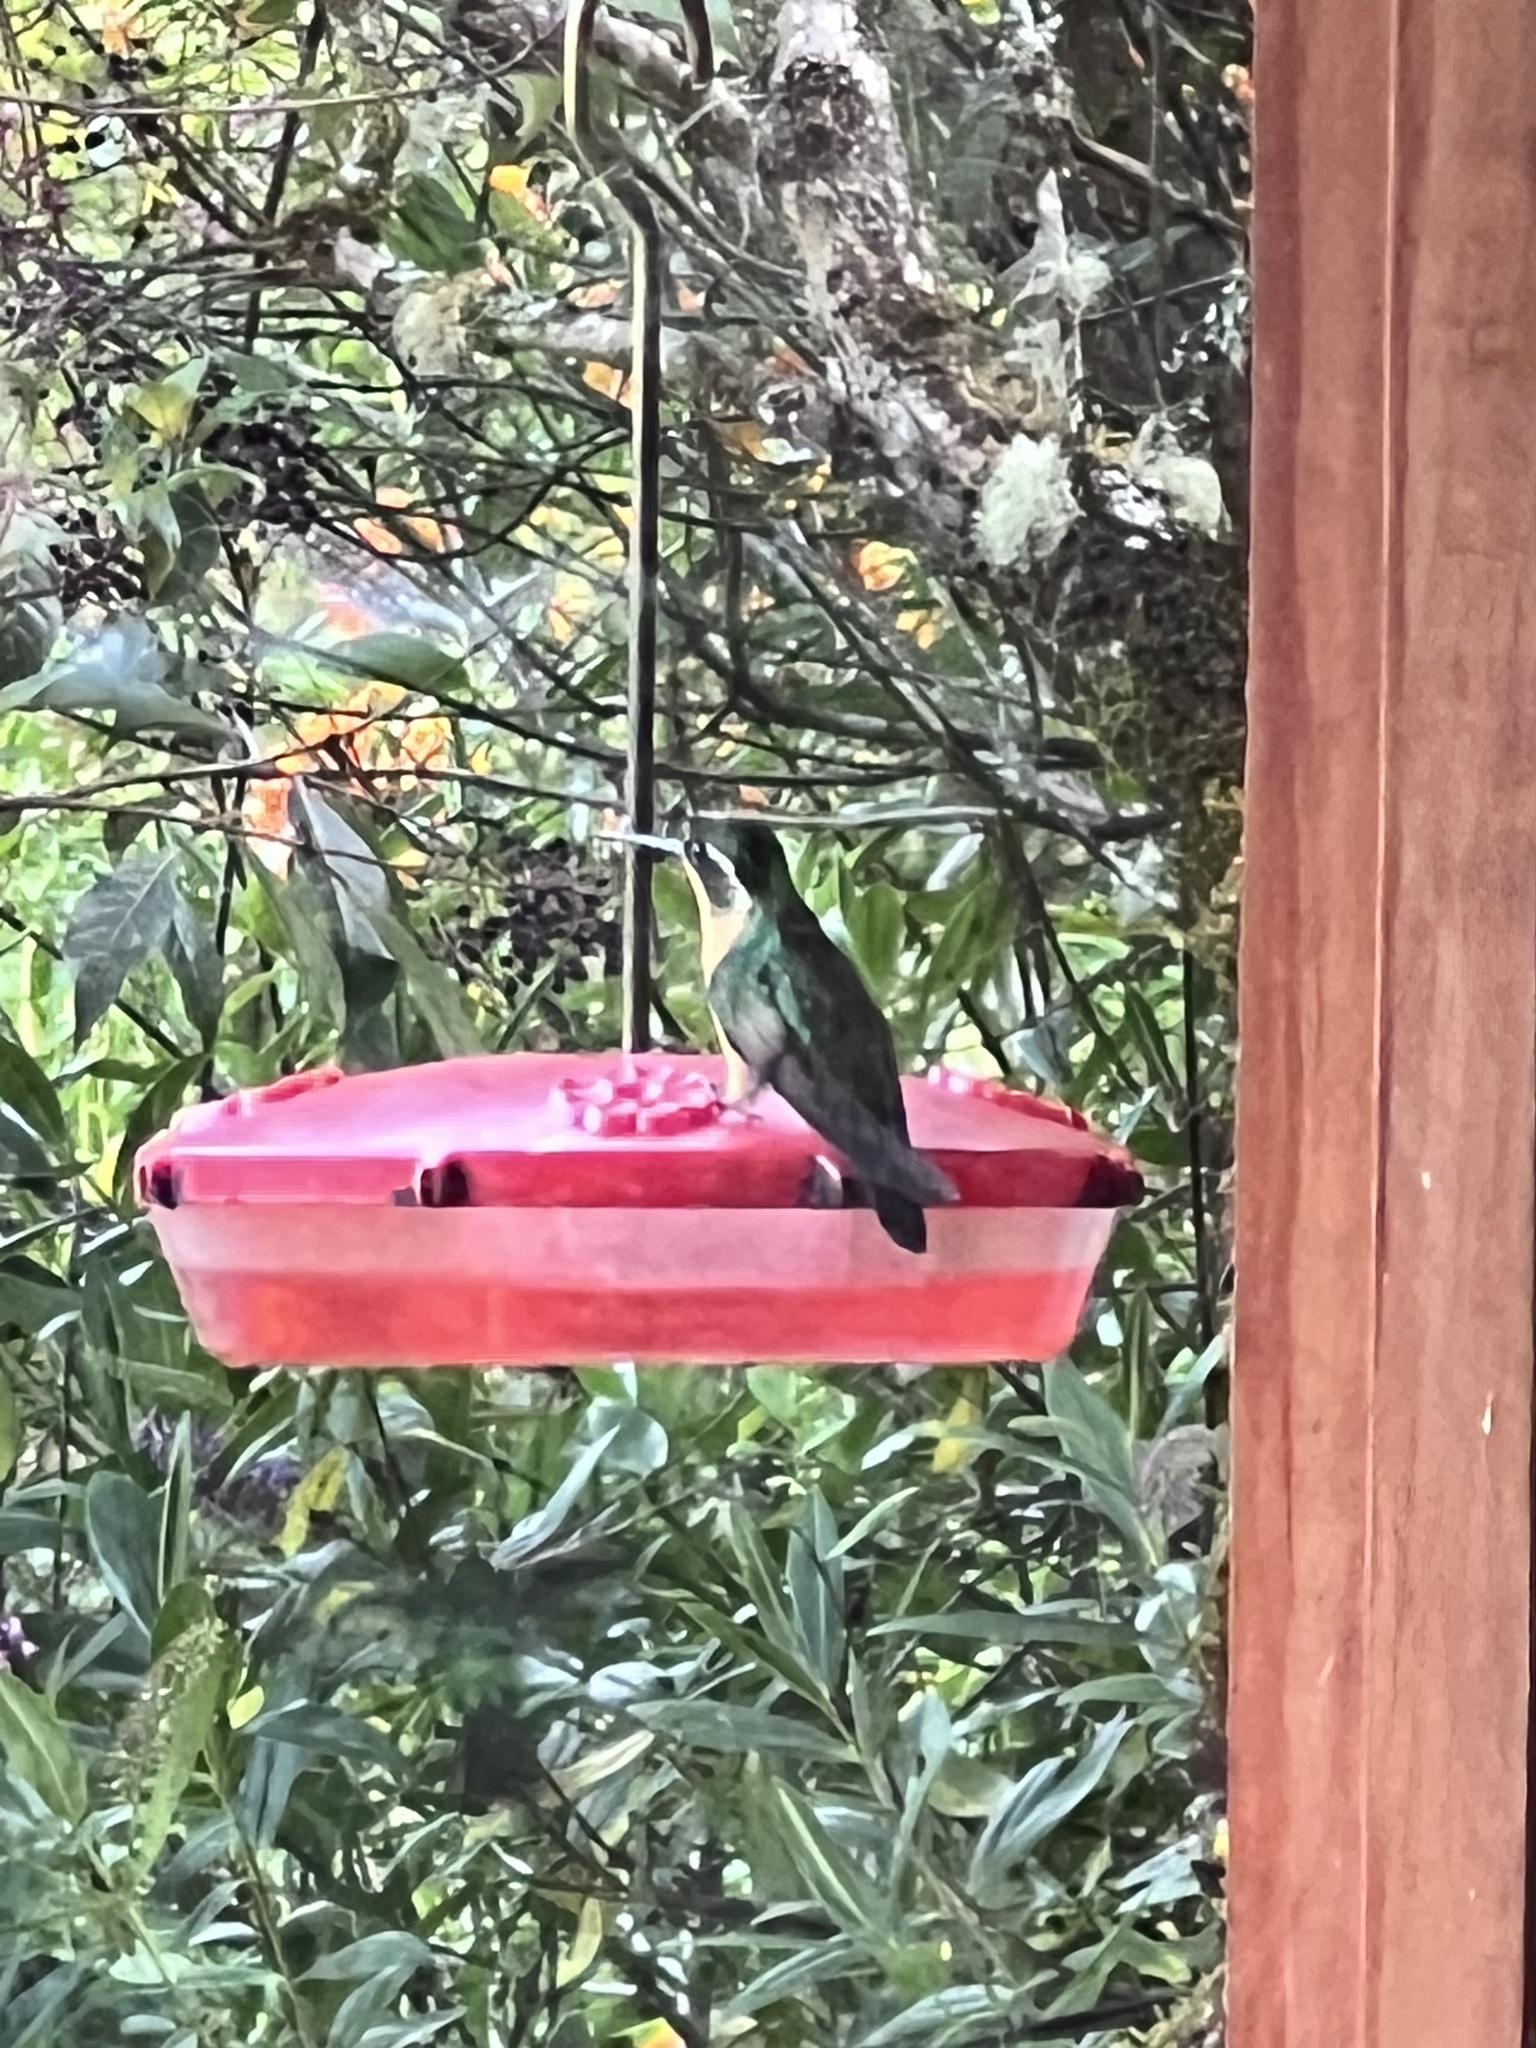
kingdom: Animalia
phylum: Chordata
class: Aves
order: Apodiformes
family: Trochilidae
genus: Lampornis
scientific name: Lampornis castaneoventris
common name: White-throated mountain-gem
